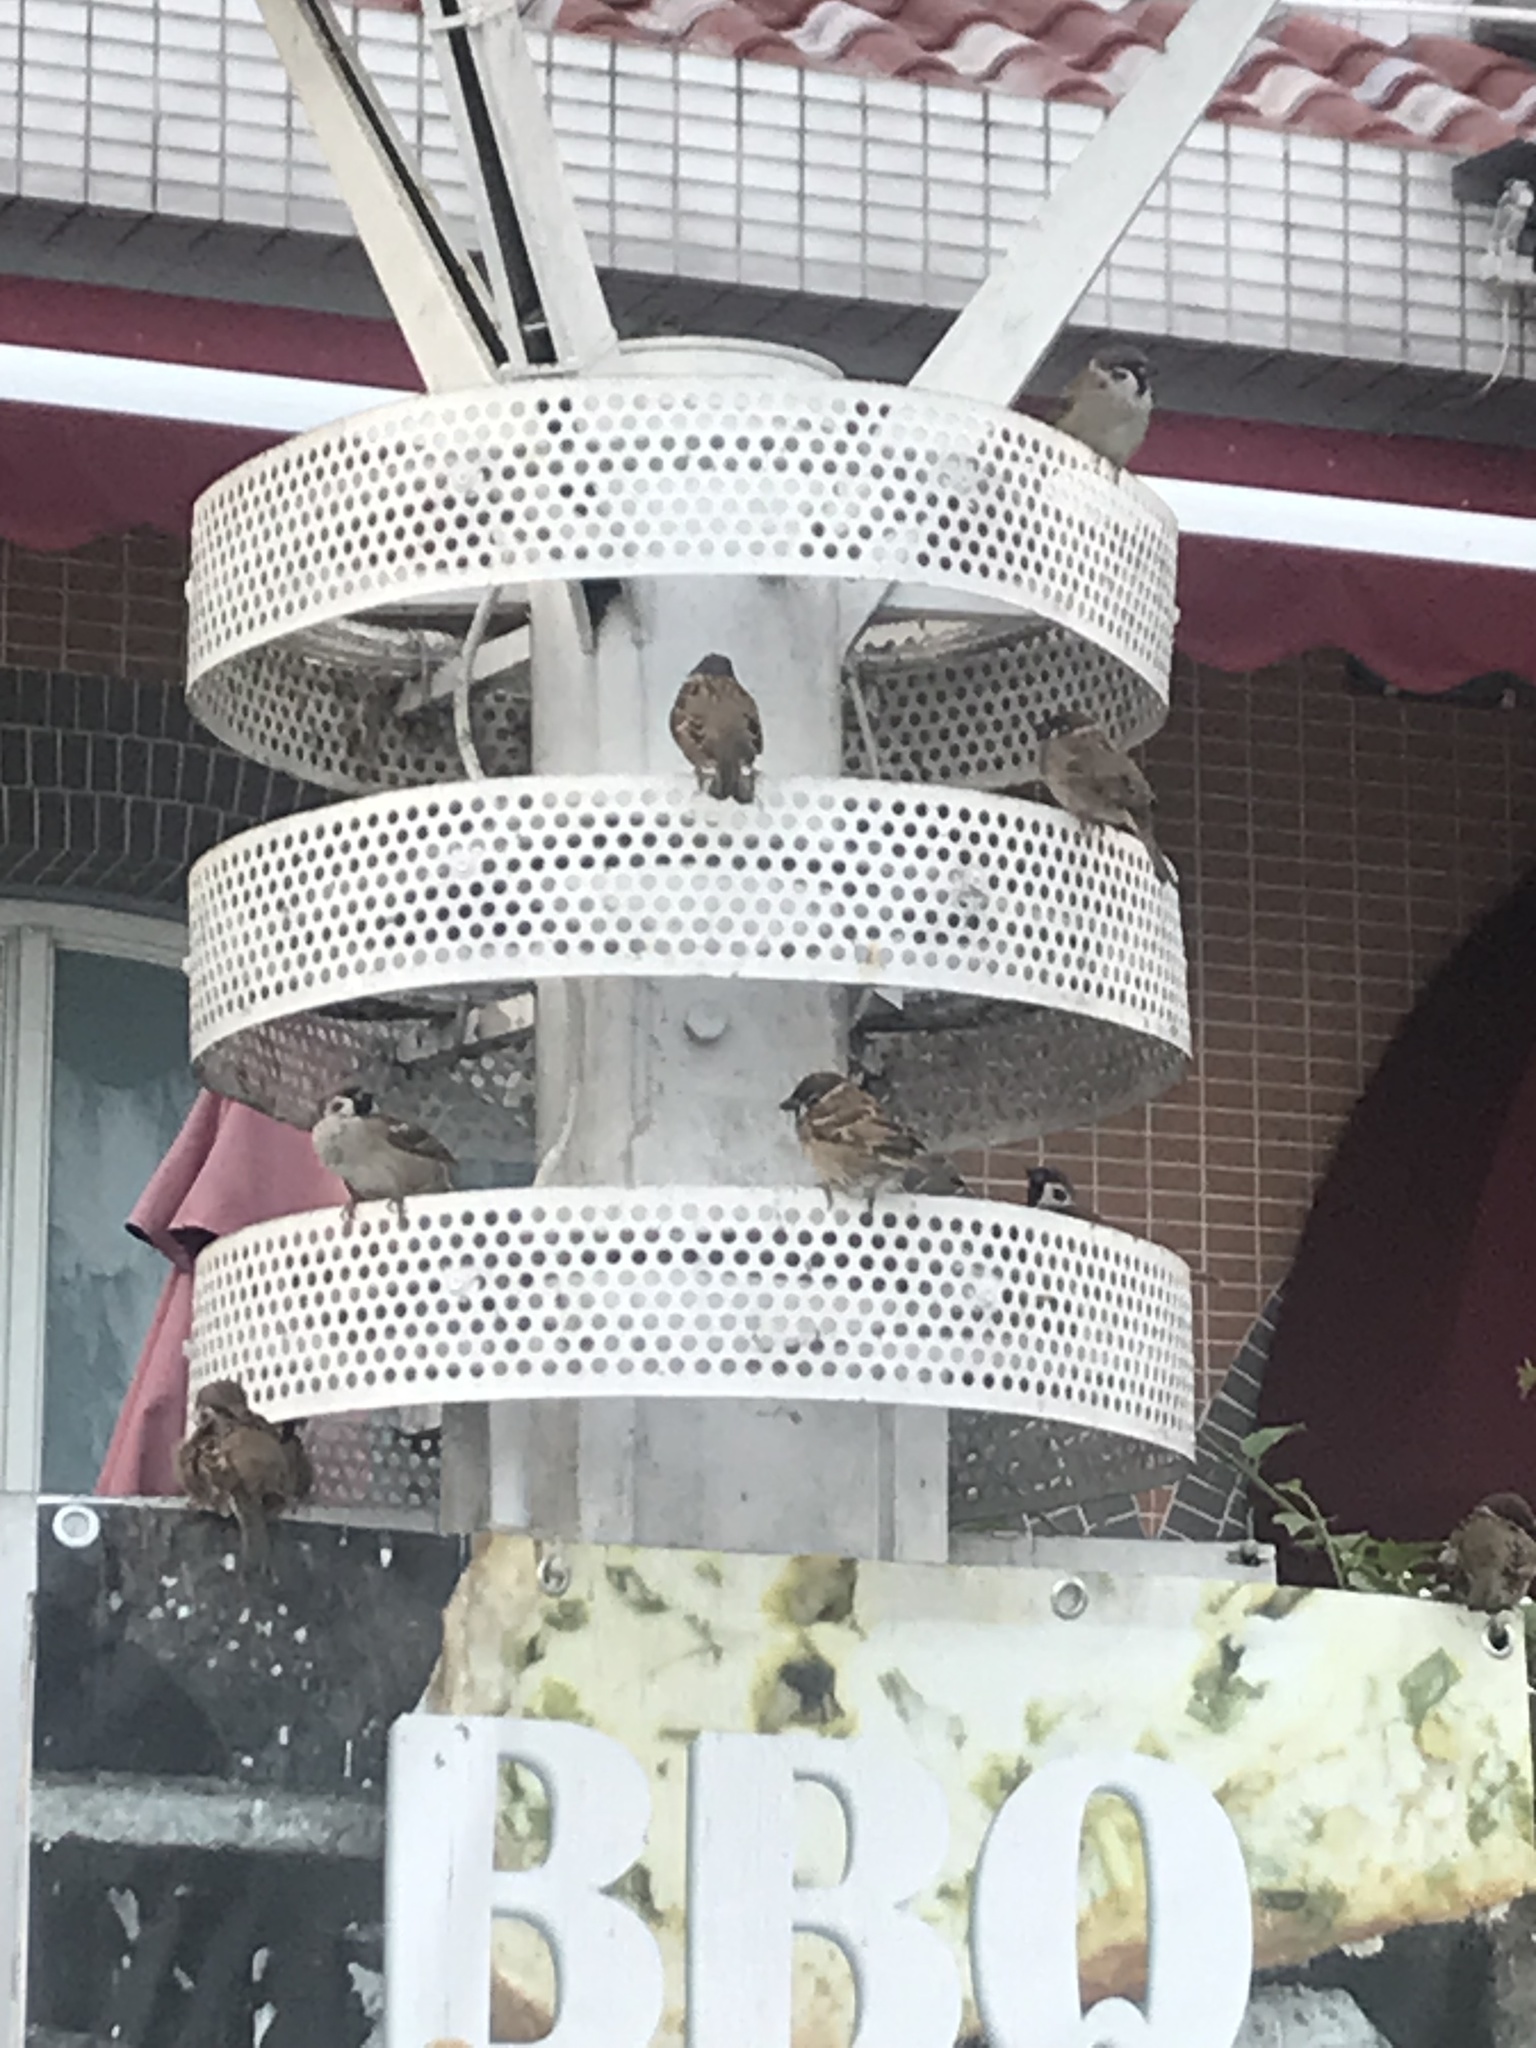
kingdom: Animalia
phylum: Chordata
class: Aves
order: Passeriformes
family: Passeridae
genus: Passer
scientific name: Passer montanus
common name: Eurasian tree sparrow
